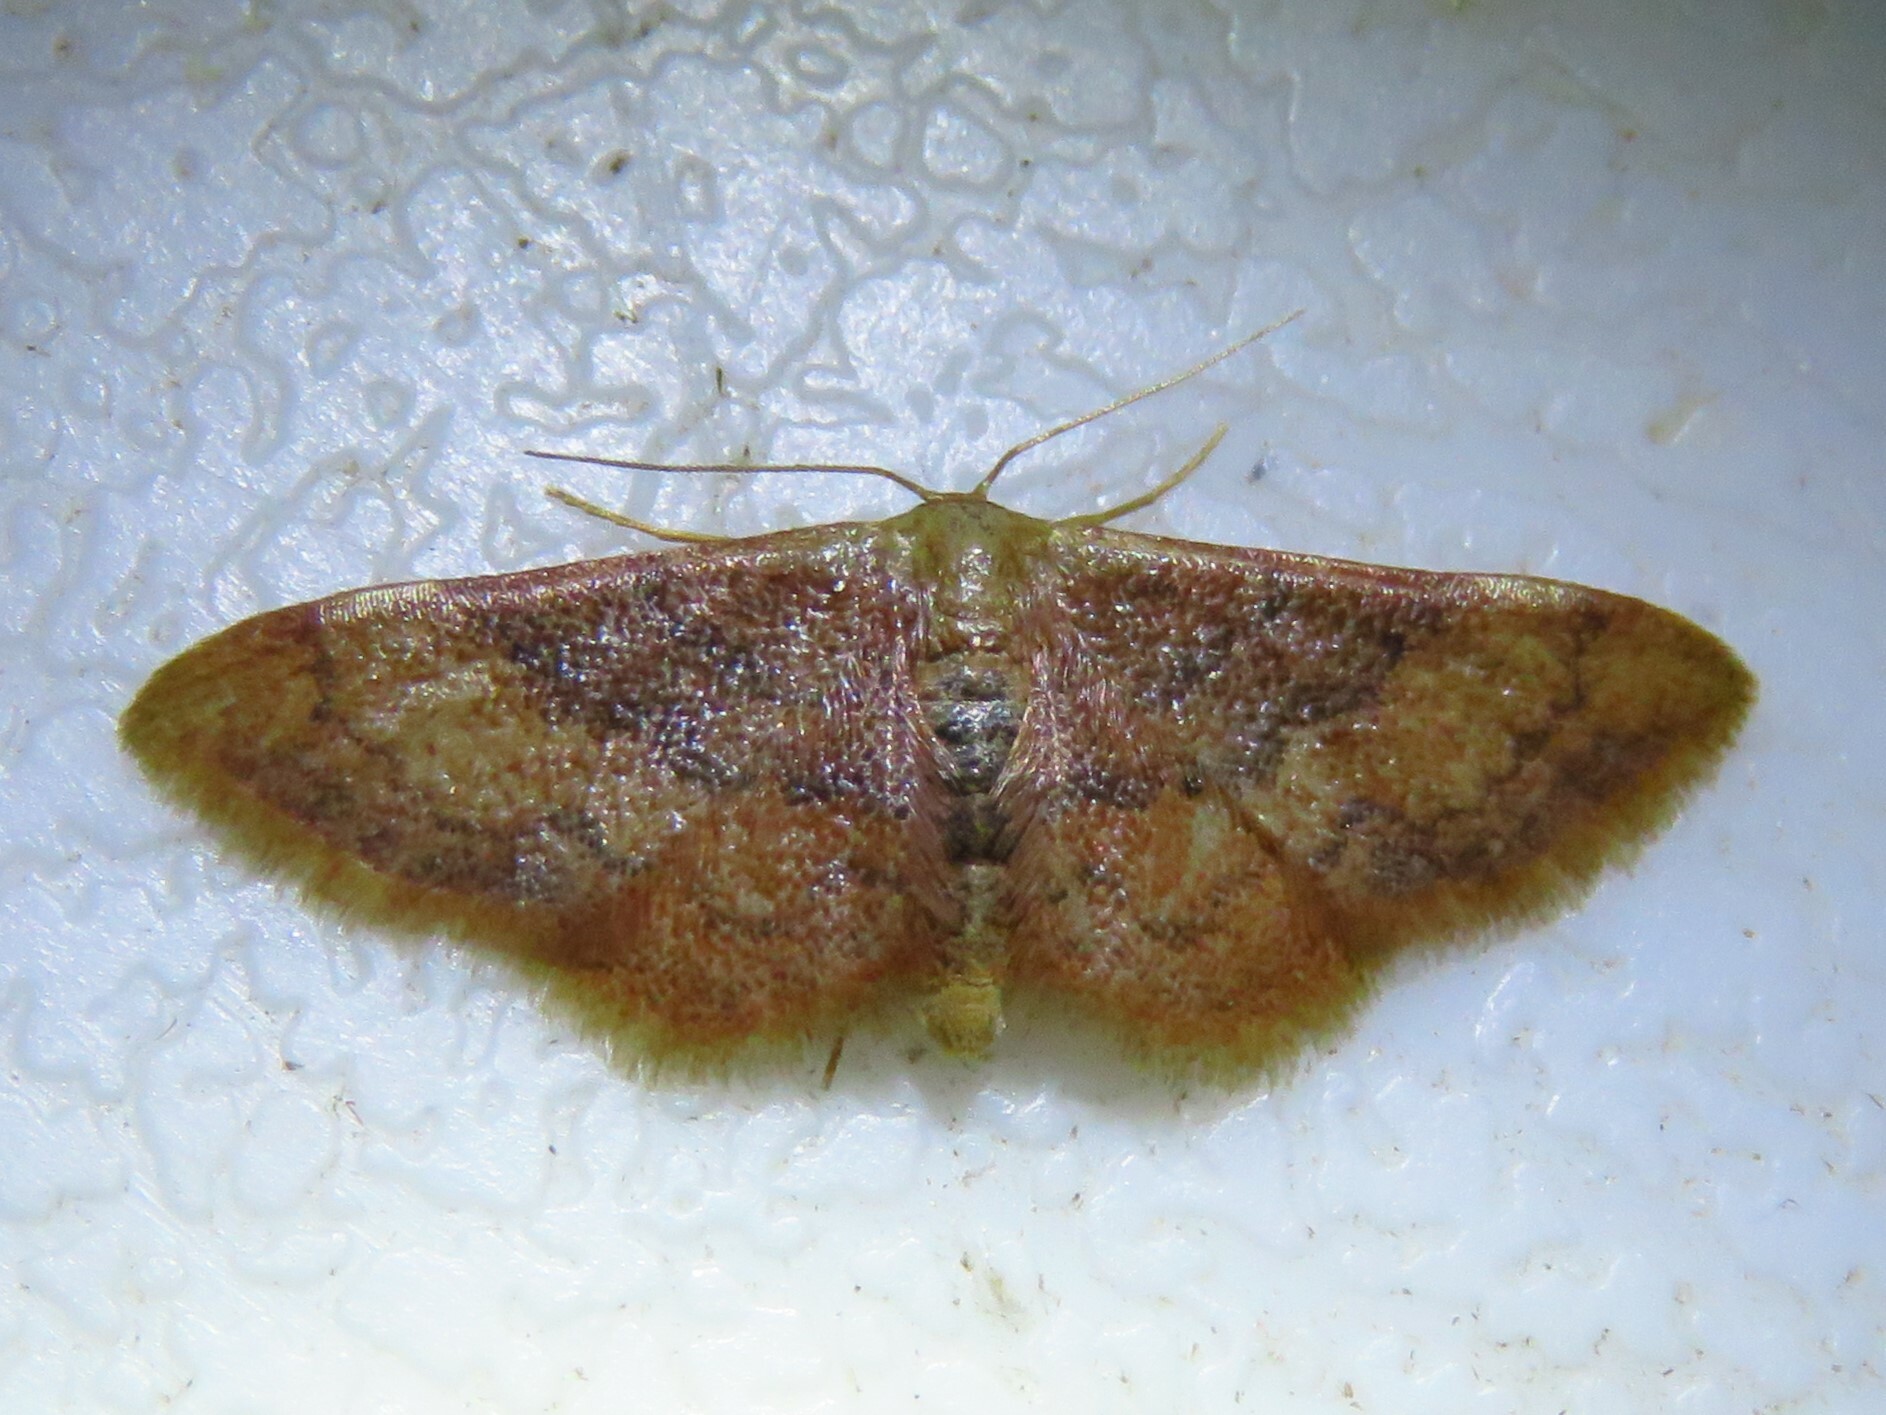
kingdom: Animalia
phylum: Arthropoda
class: Insecta
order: Lepidoptera
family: Geometridae
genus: Idaea
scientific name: Idaea demissaria
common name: Red-bordered wave
